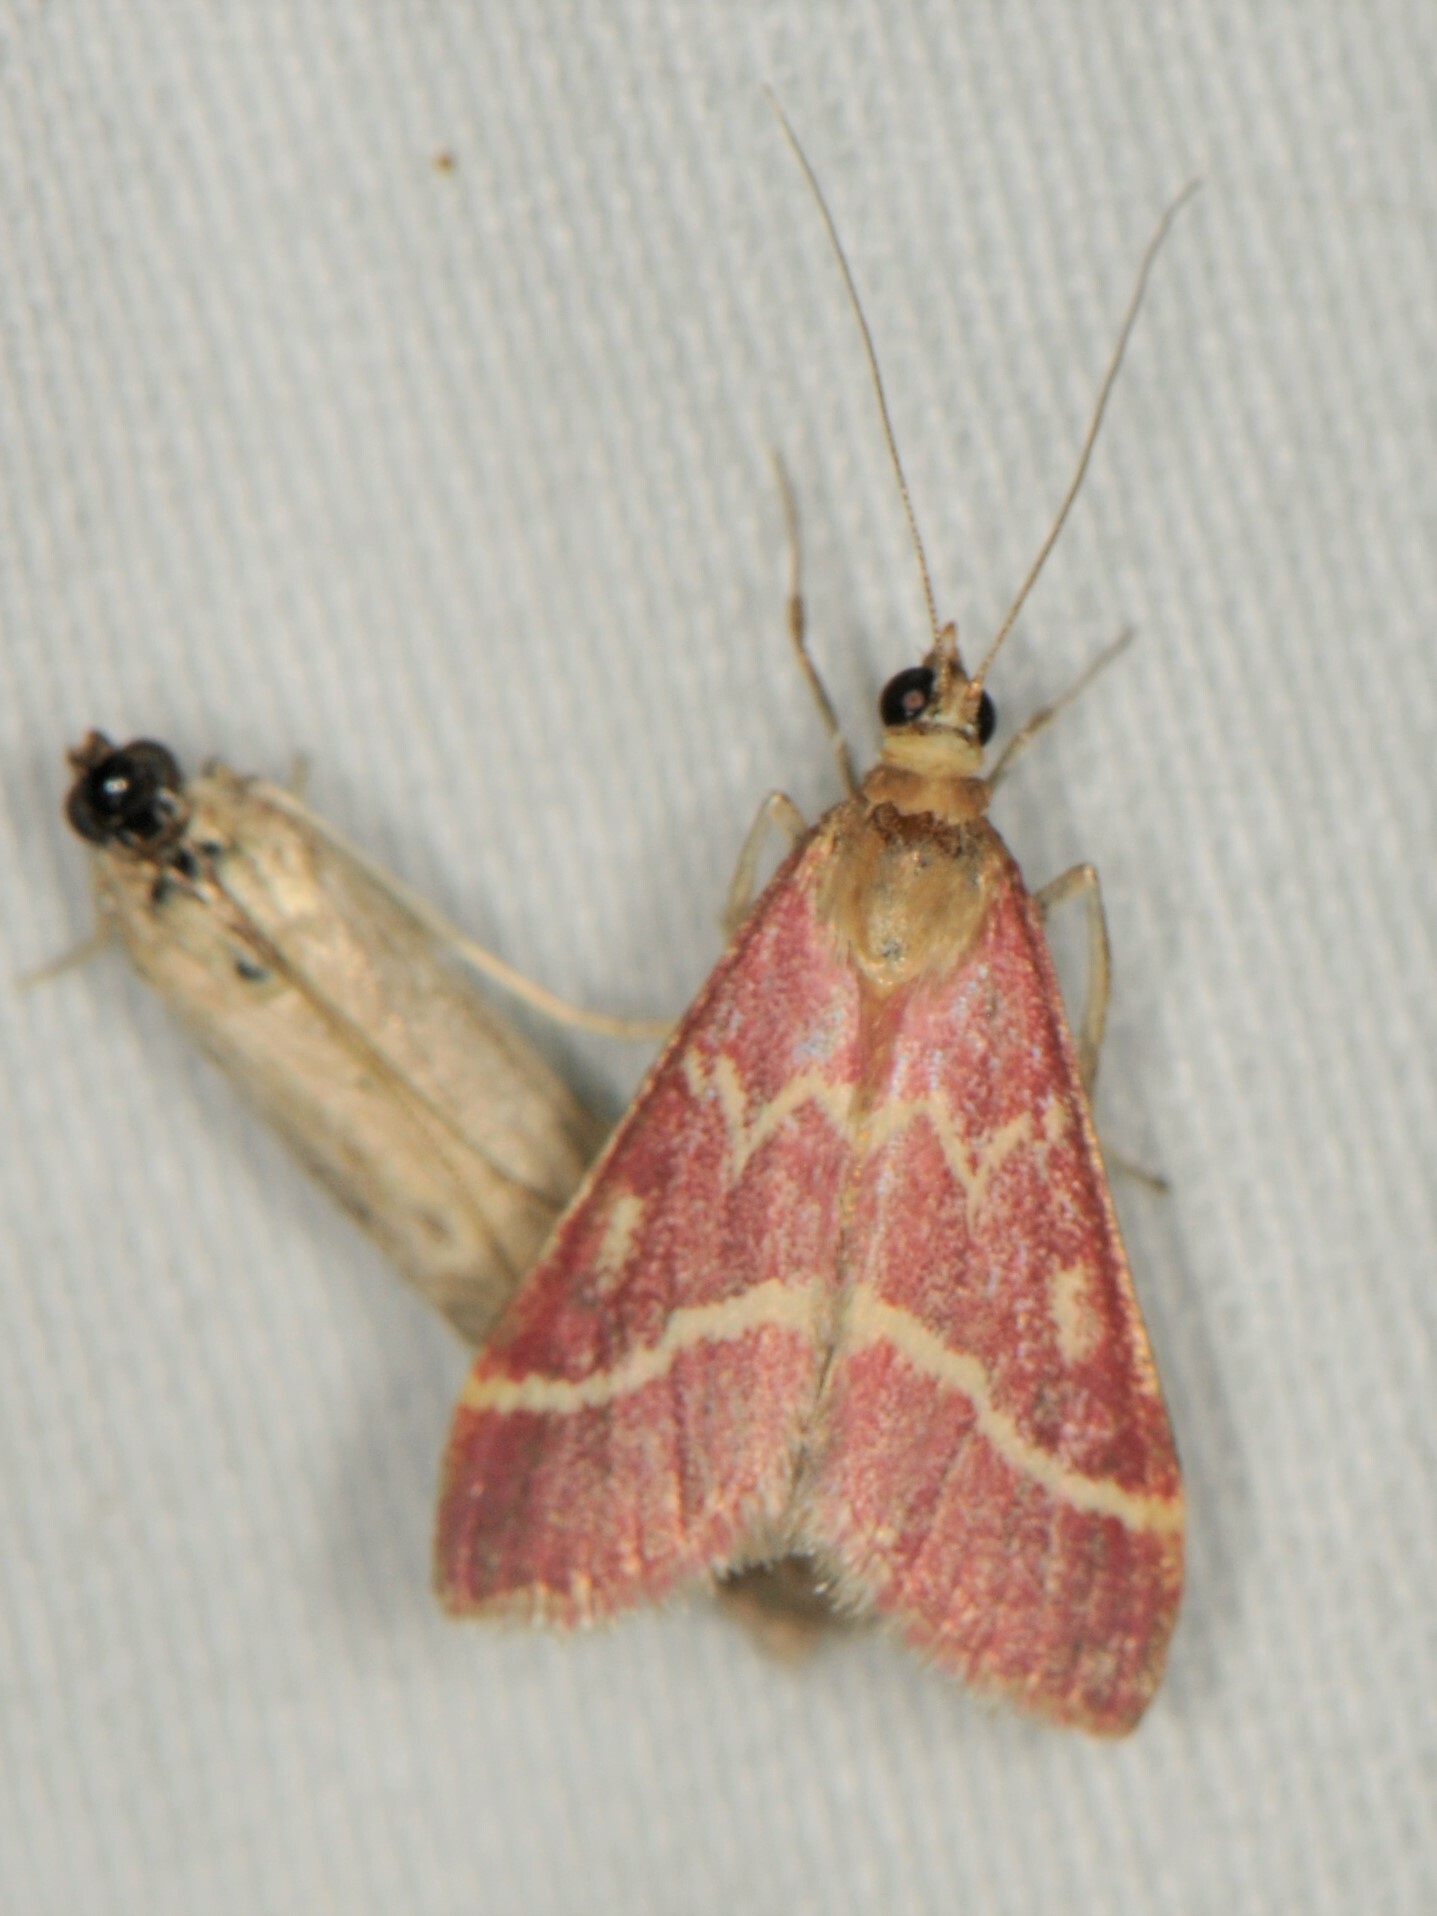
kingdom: Animalia
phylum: Arthropoda
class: Insecta
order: Lepidoptera
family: Crambidae
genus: Pyrausta
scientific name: Pyrausta volupialis
